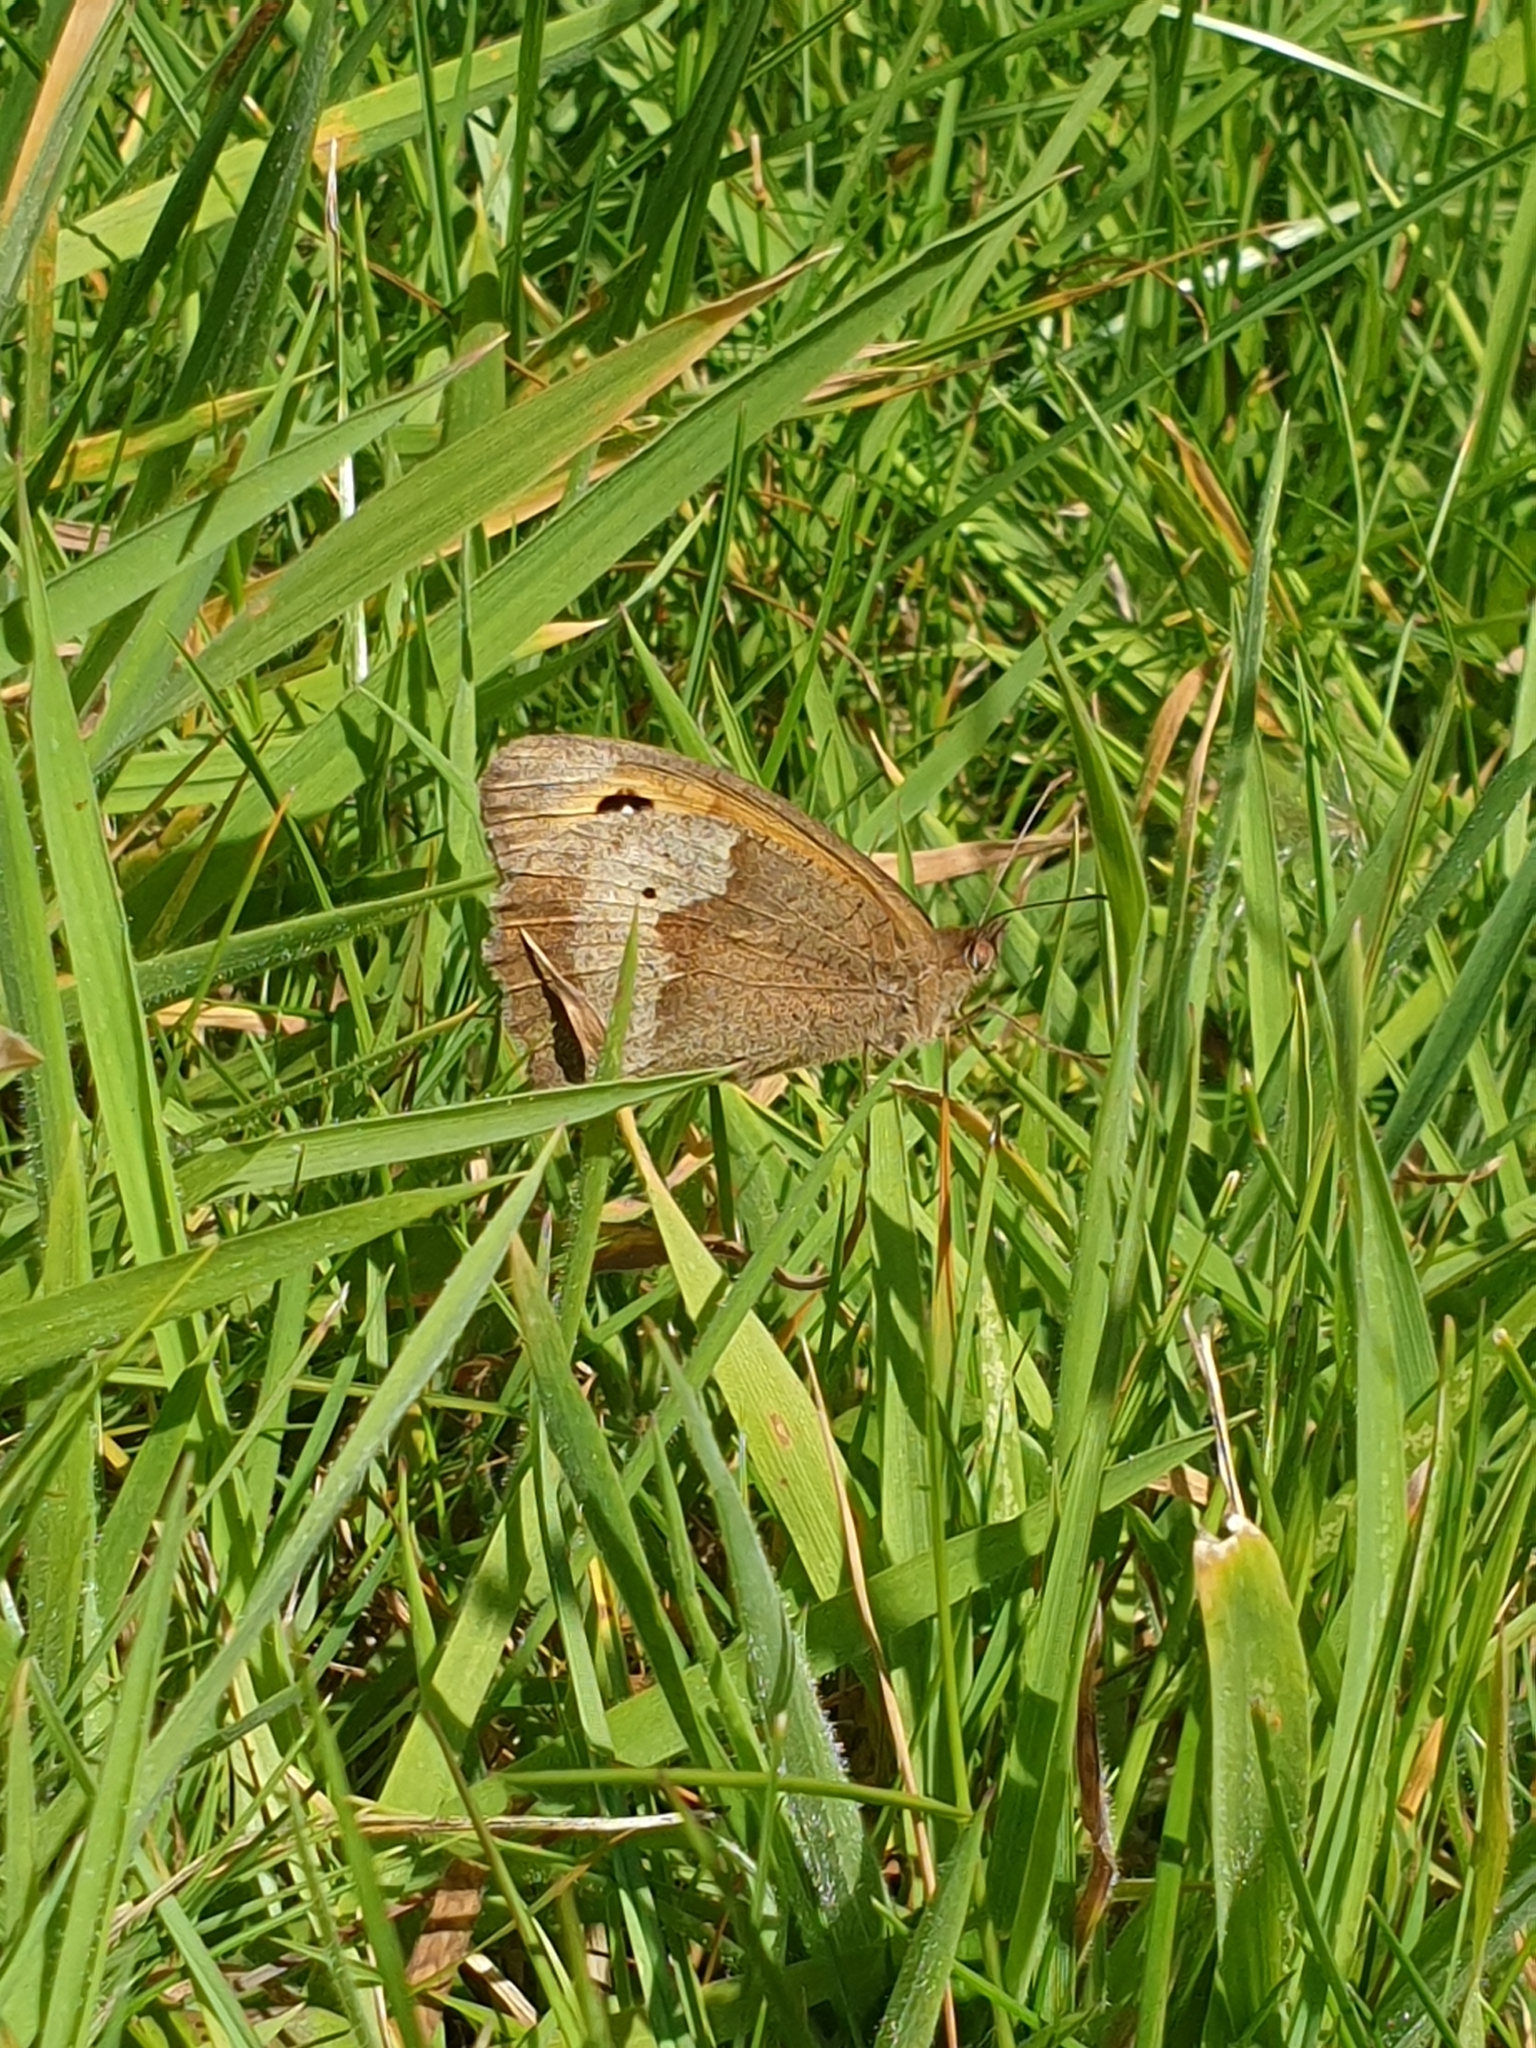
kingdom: Animalia
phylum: Arthropoda
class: Insecta
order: Lepidoptera
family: Nymphalidae
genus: Maniola
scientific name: Maniola jurtina
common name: Meadow brown
